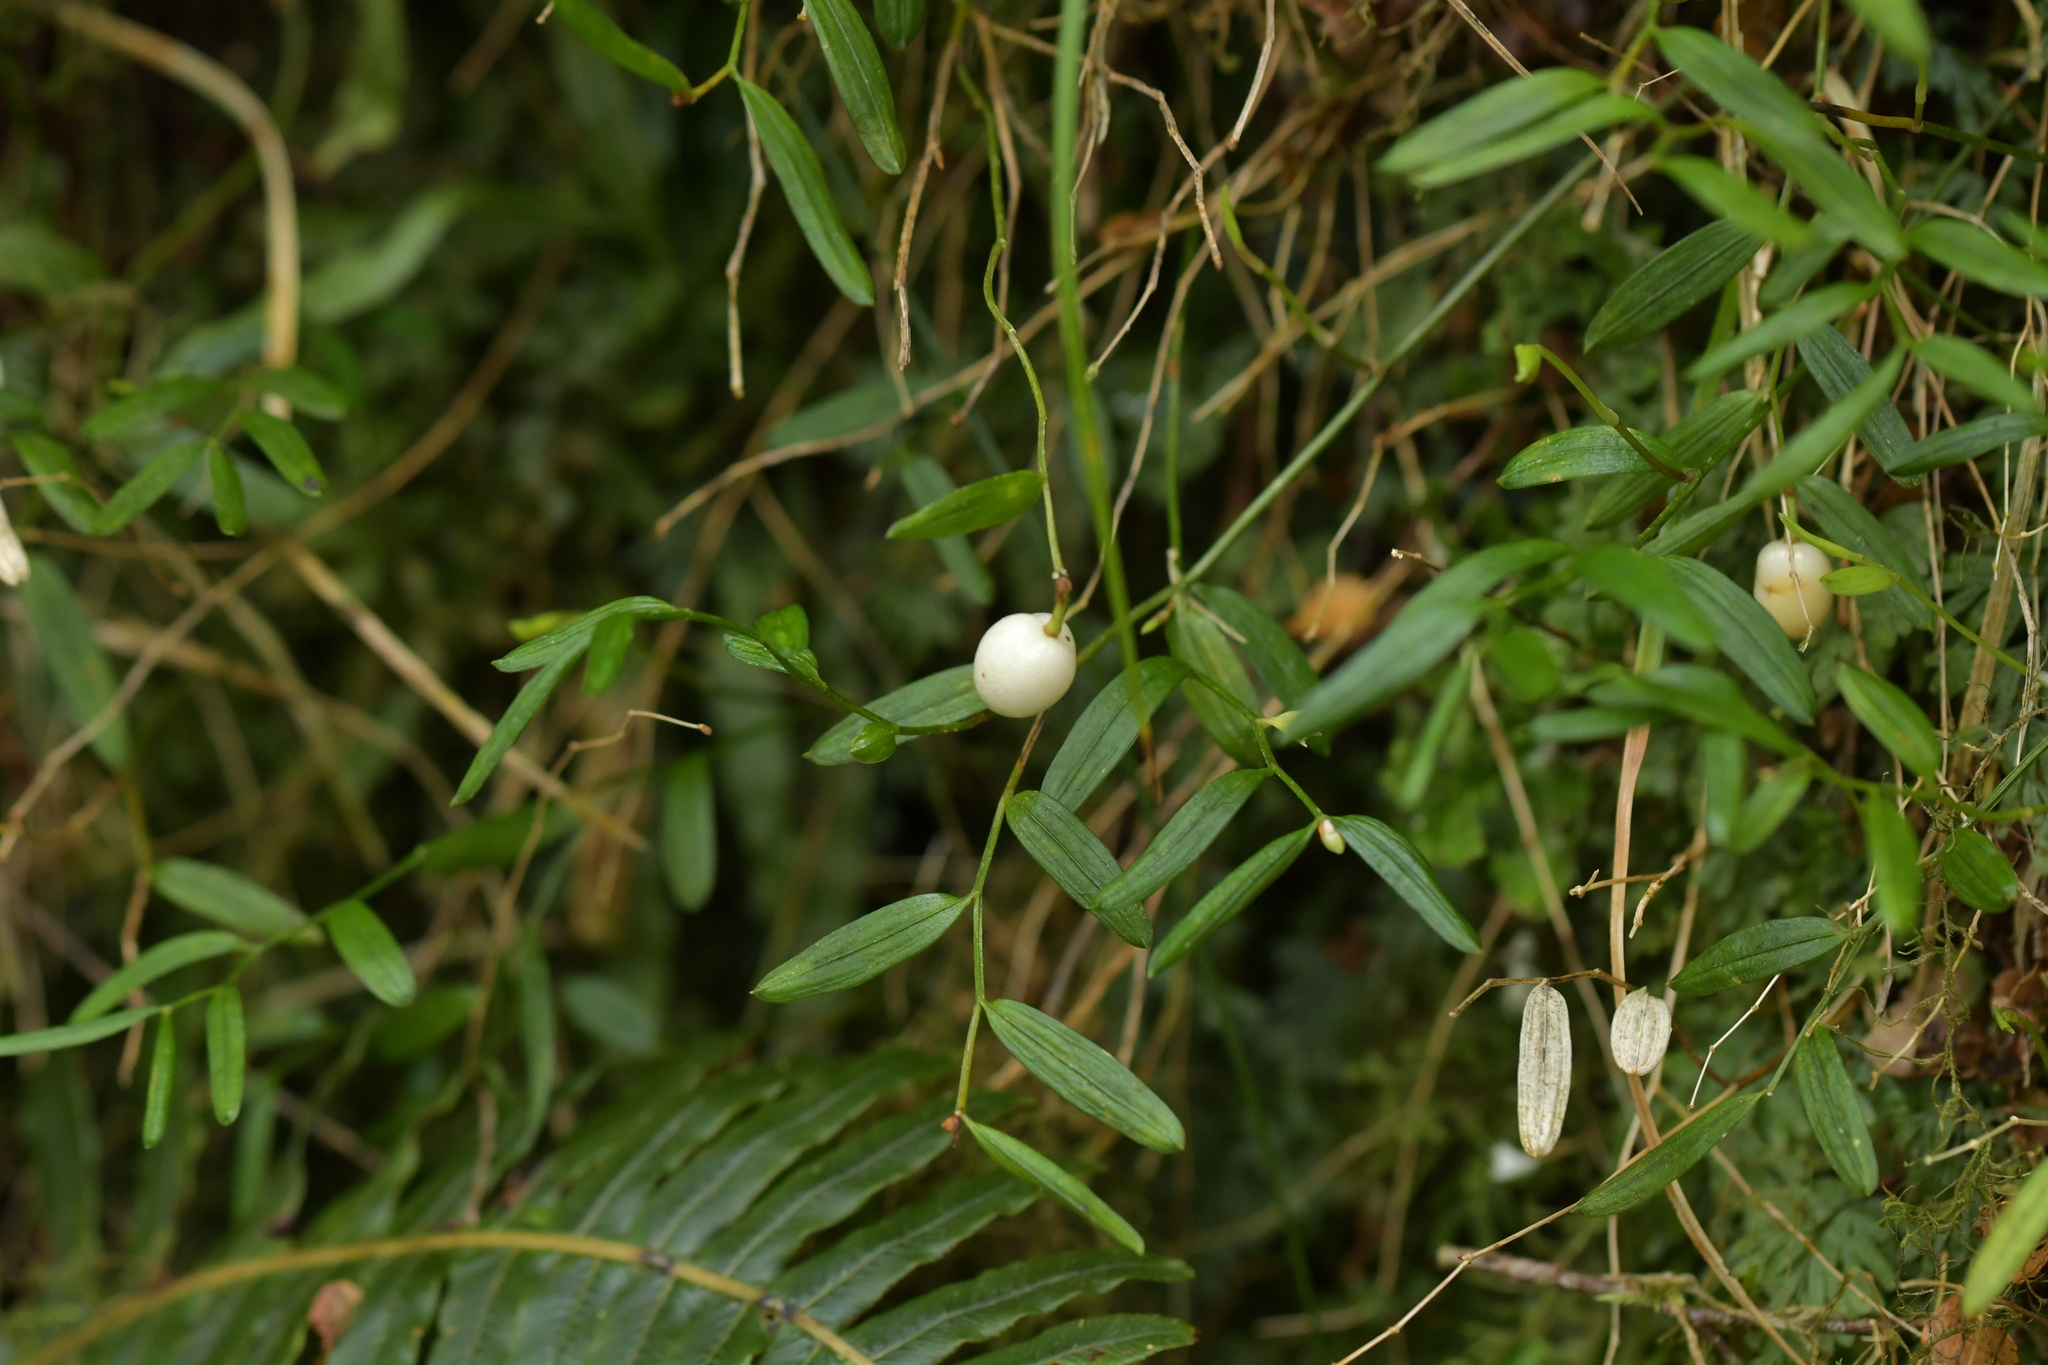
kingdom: Plantae
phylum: Tracheophyta
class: Liliopsida
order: Liliales
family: Alstroemeriaceae
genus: Luzuriaga
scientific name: Luzuriaga parviflora
